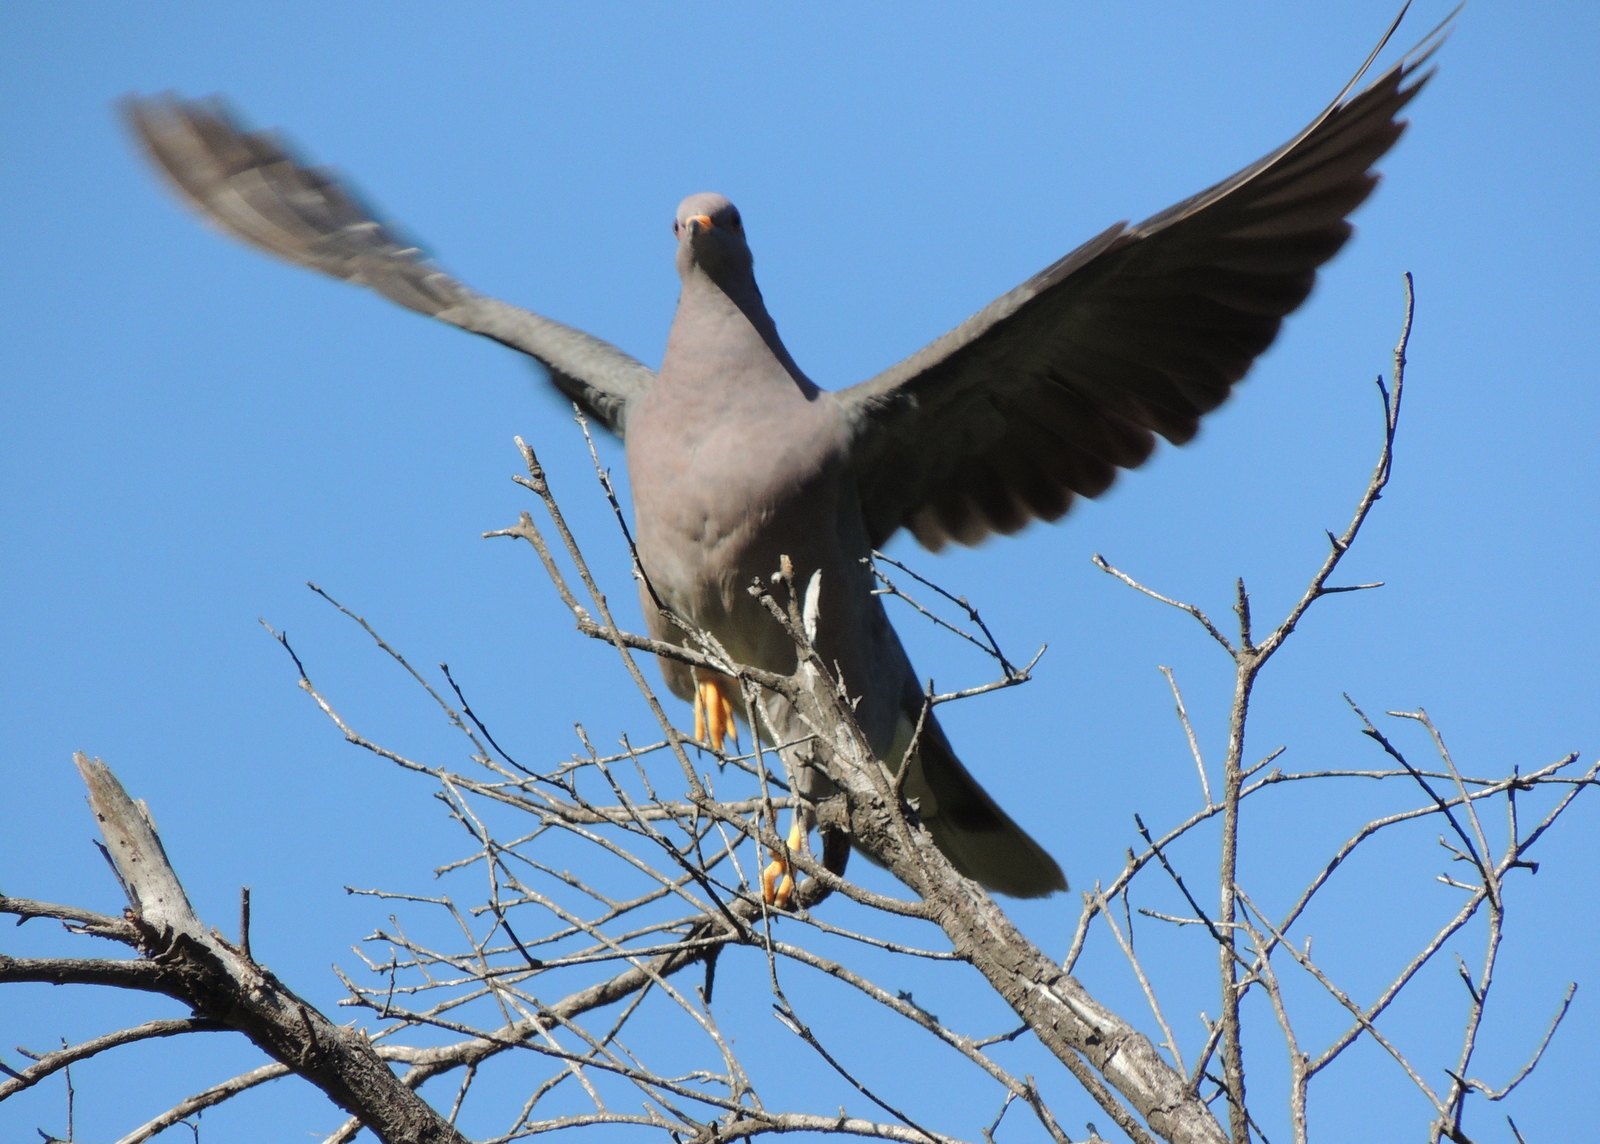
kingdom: Animalia
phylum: Chordata
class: Aves
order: Columbiformes
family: Columbidae
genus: Patagioenas
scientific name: Patagioenas fasciata
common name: Band-tailed pigeon
